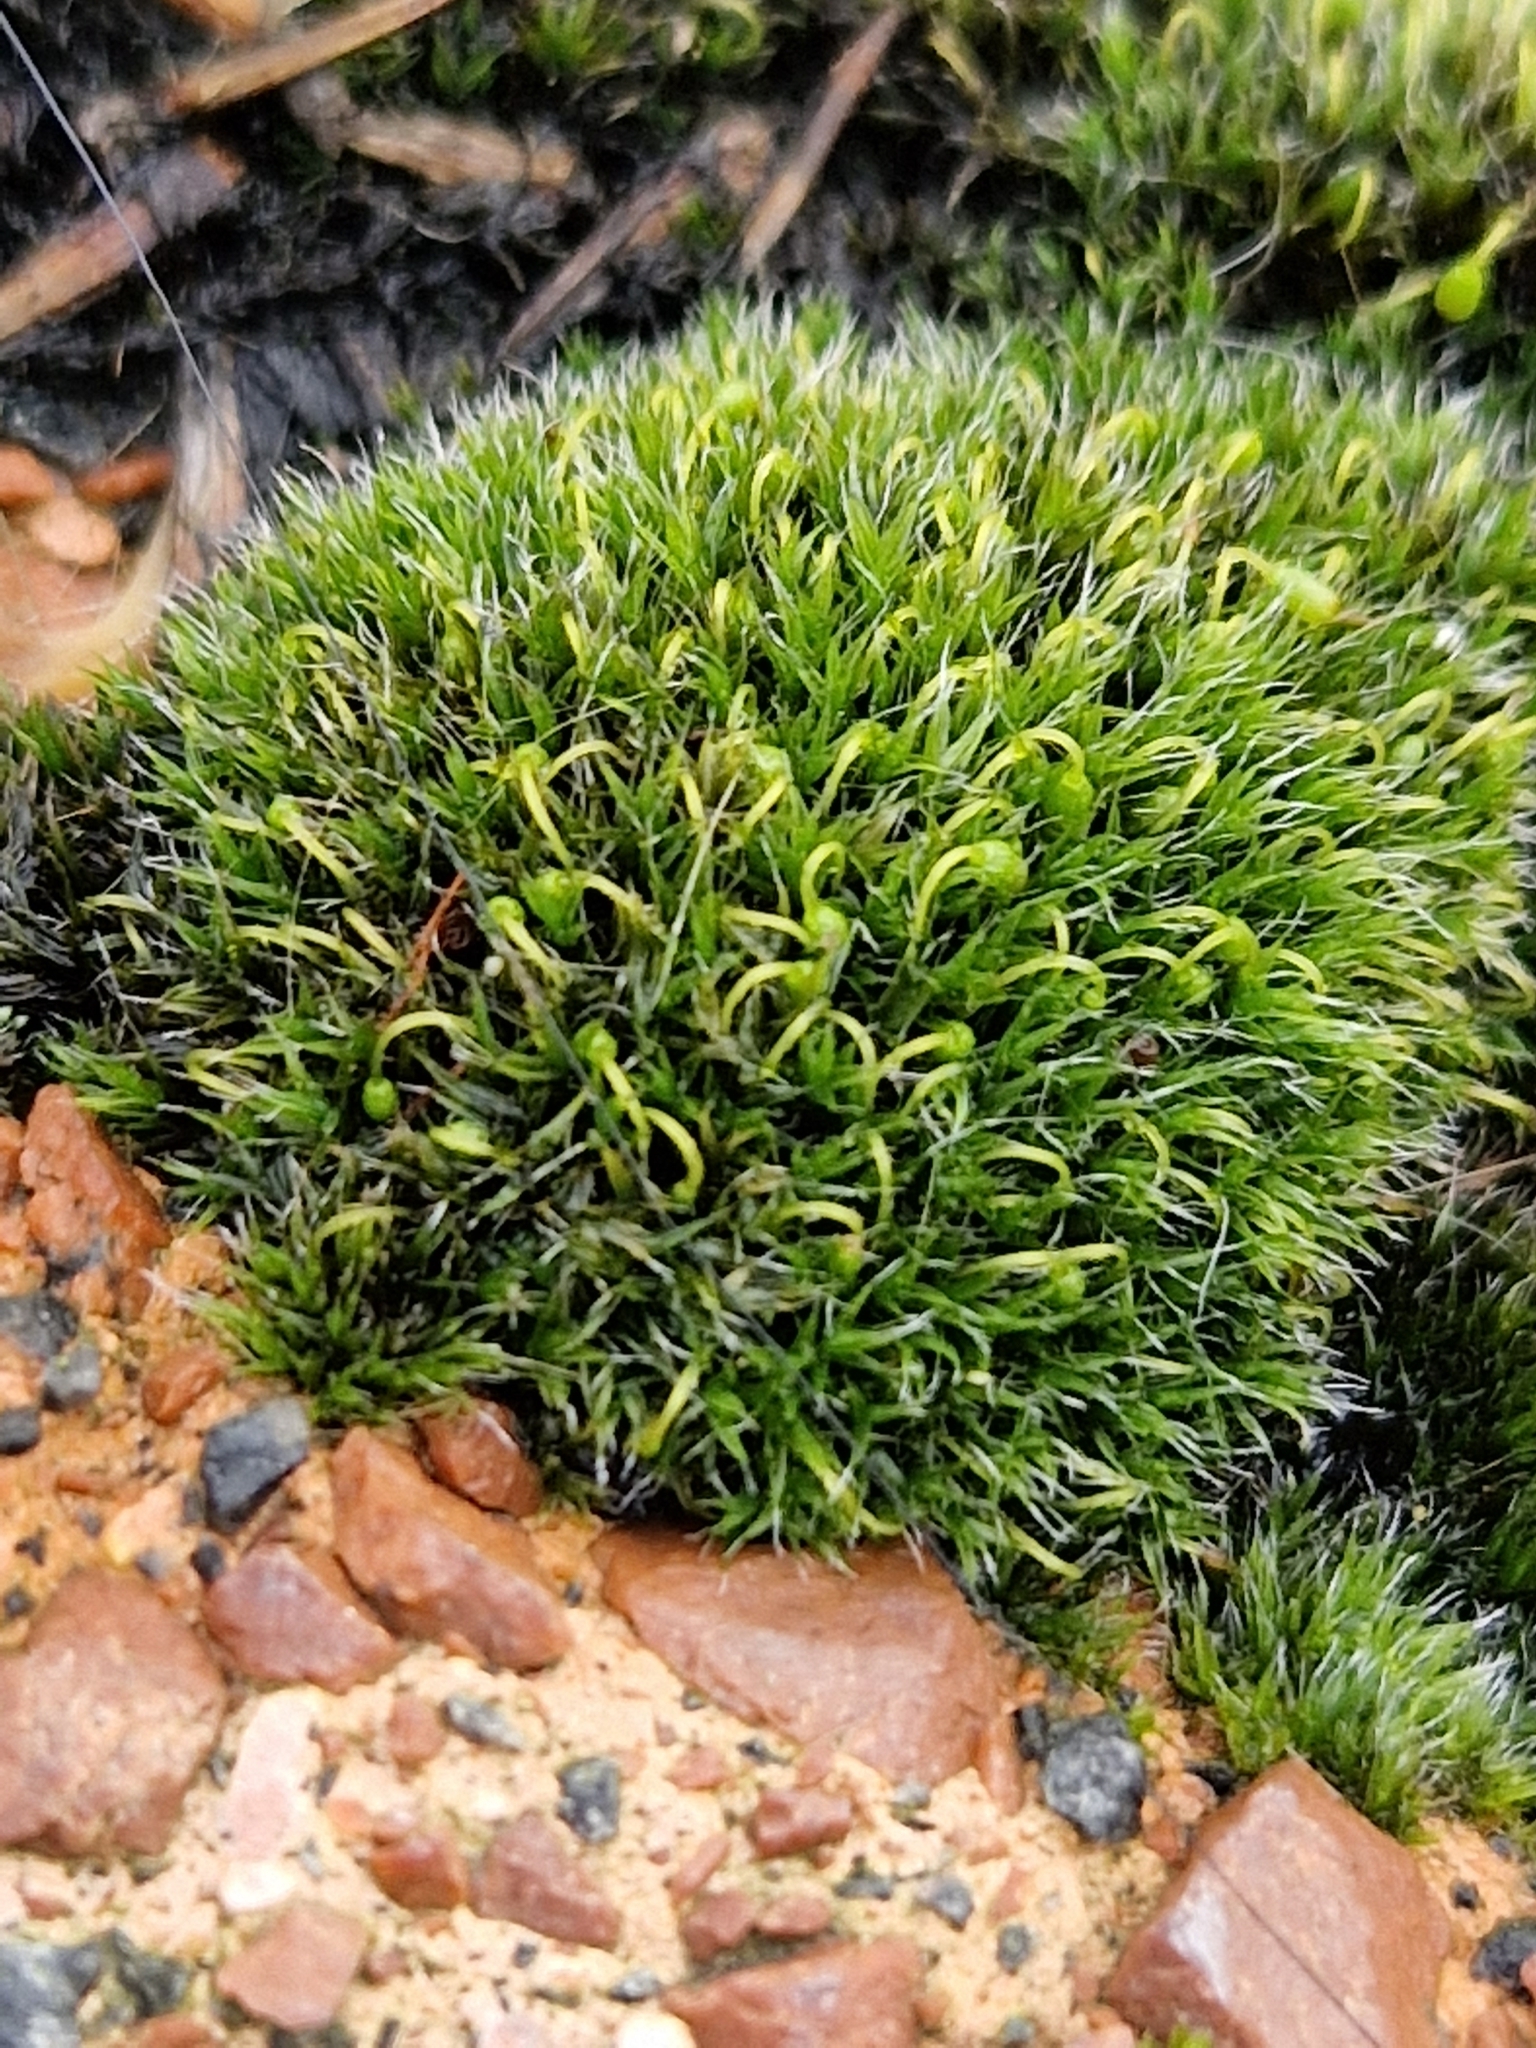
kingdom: Plantae
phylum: Bryophyta
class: Bryopsida
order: Grimmiales
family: Grimmiaceae
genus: Grimmia
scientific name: Grimmia pulvinata
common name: Grey-cushioned grimmia
